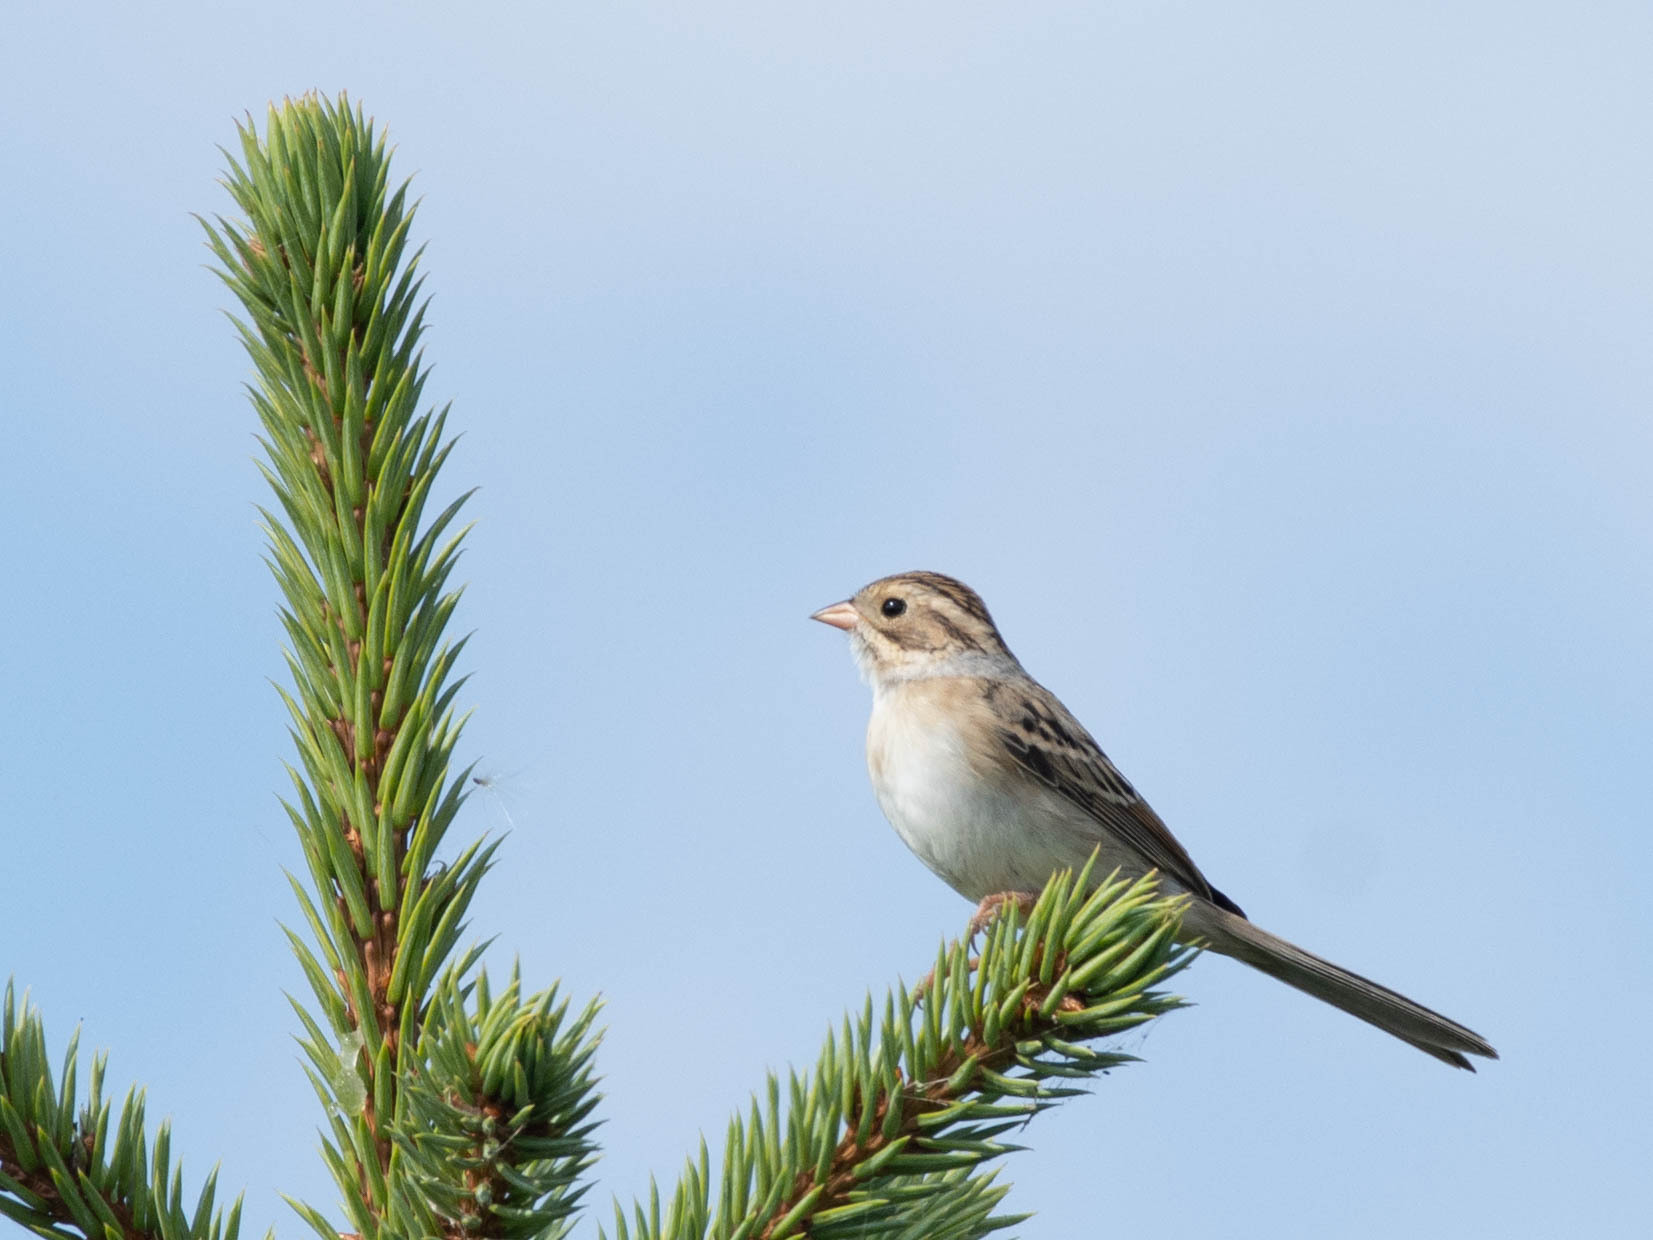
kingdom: Animalia
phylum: Chordata
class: Aves
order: Passeriformes
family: Passerellidae
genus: Spizella
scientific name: Spizella pallida
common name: Clay-colored sparrow
